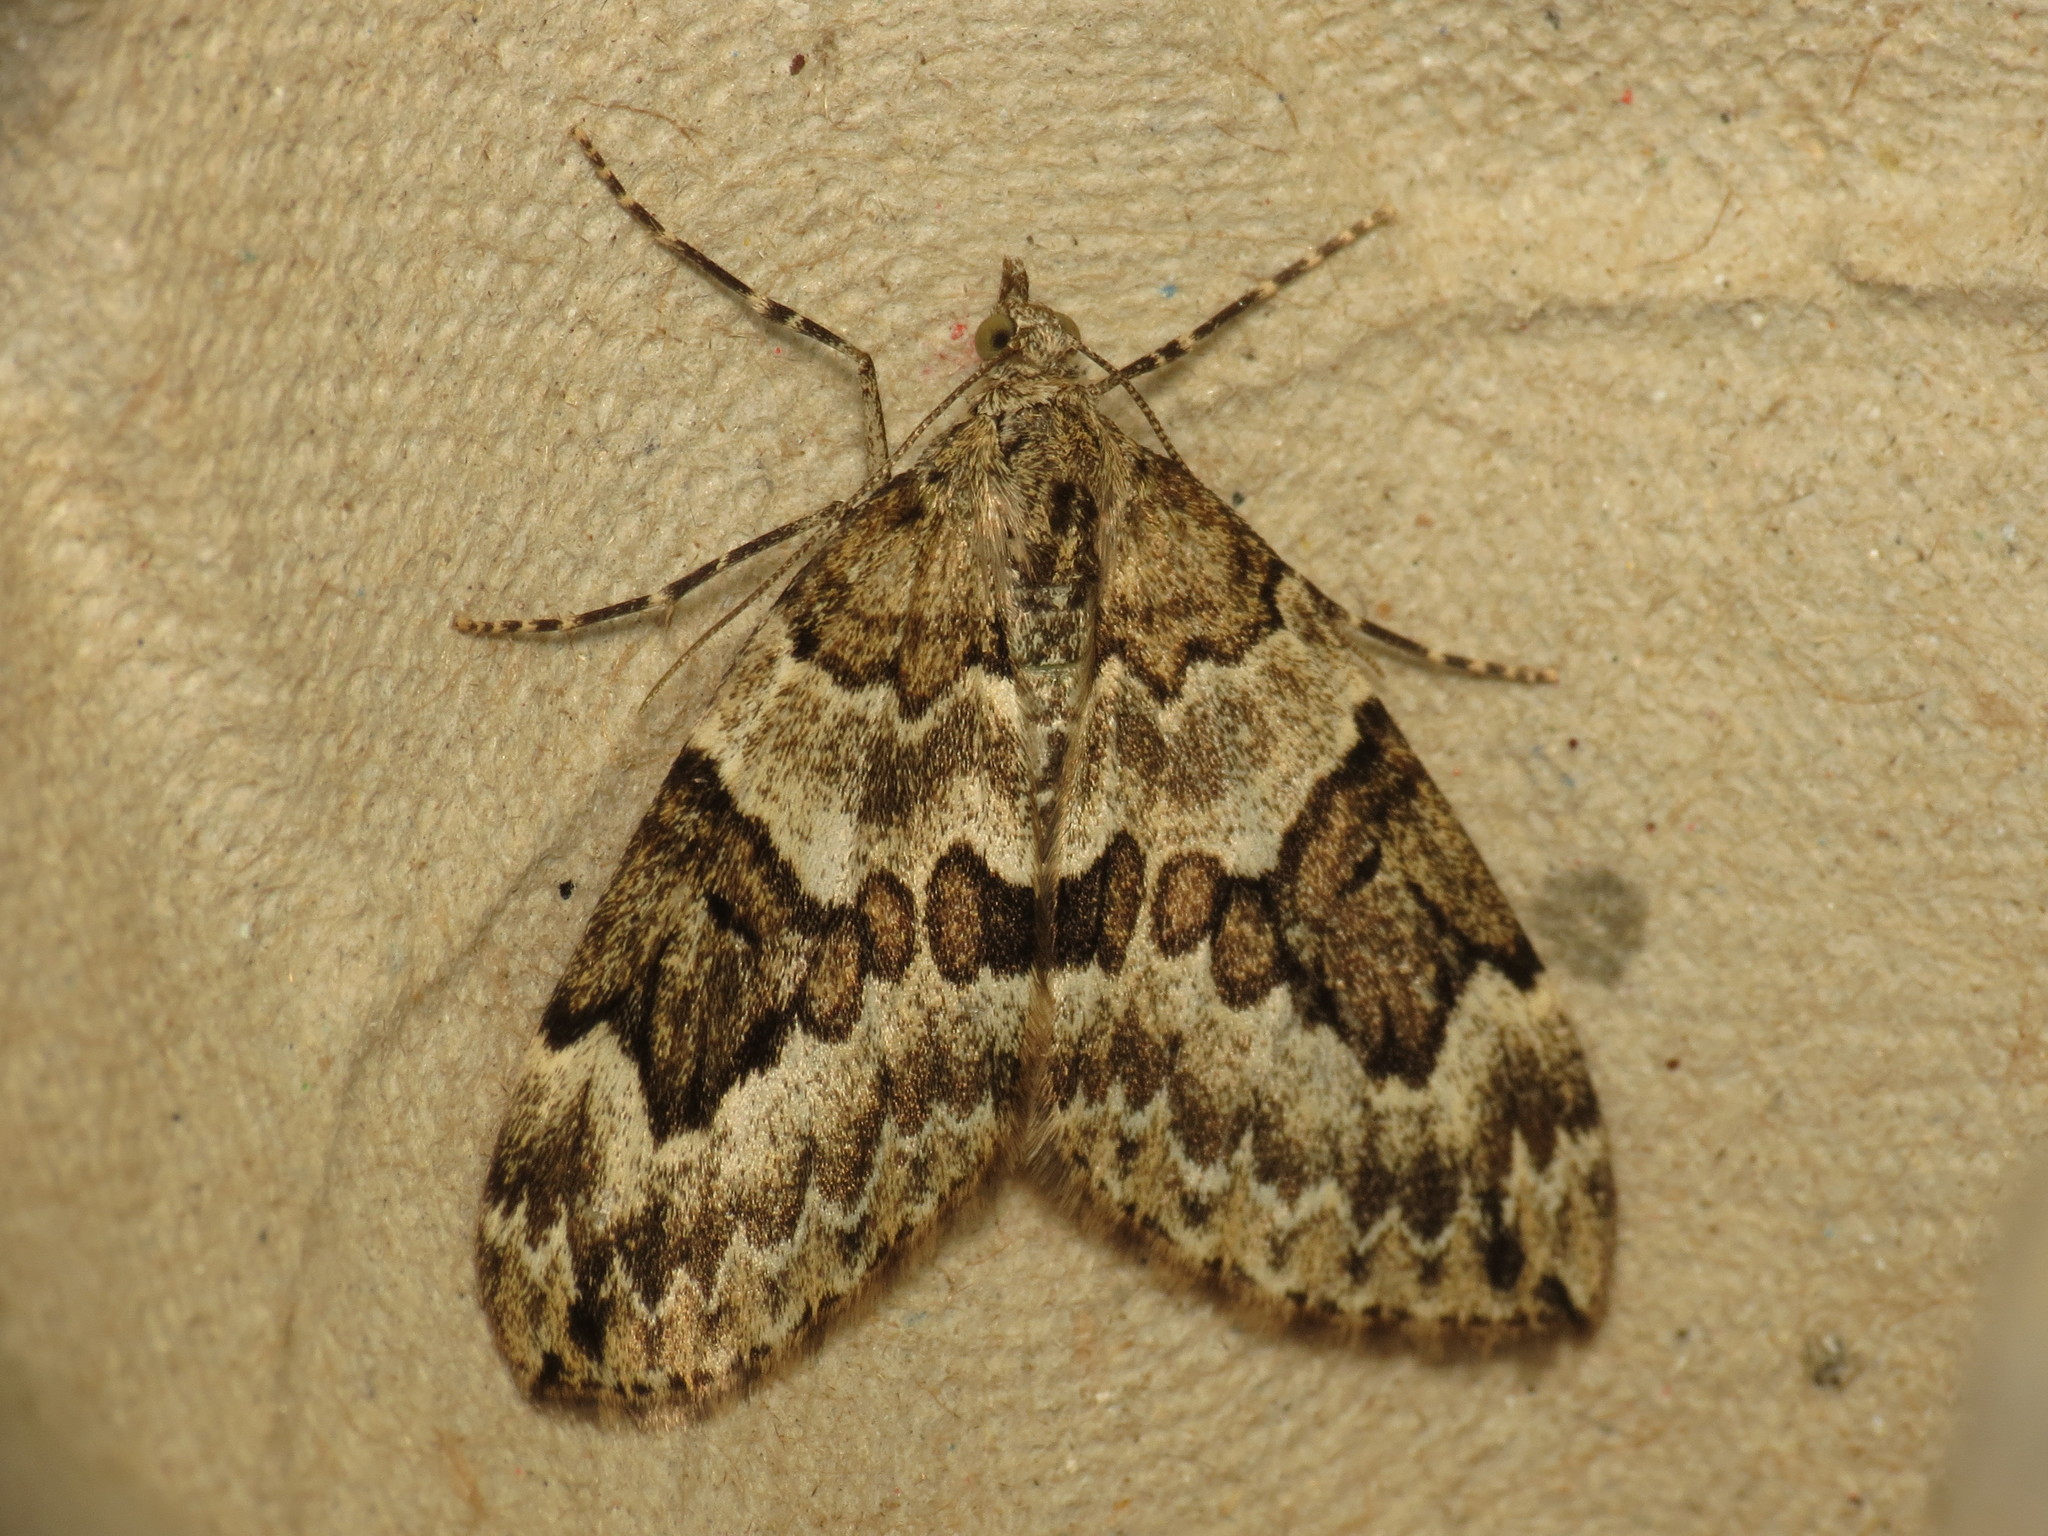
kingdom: Animalia
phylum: Arthropoda
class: Insecta
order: Lepidoptera
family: Geometridae
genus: Thera
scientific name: Thera variata
